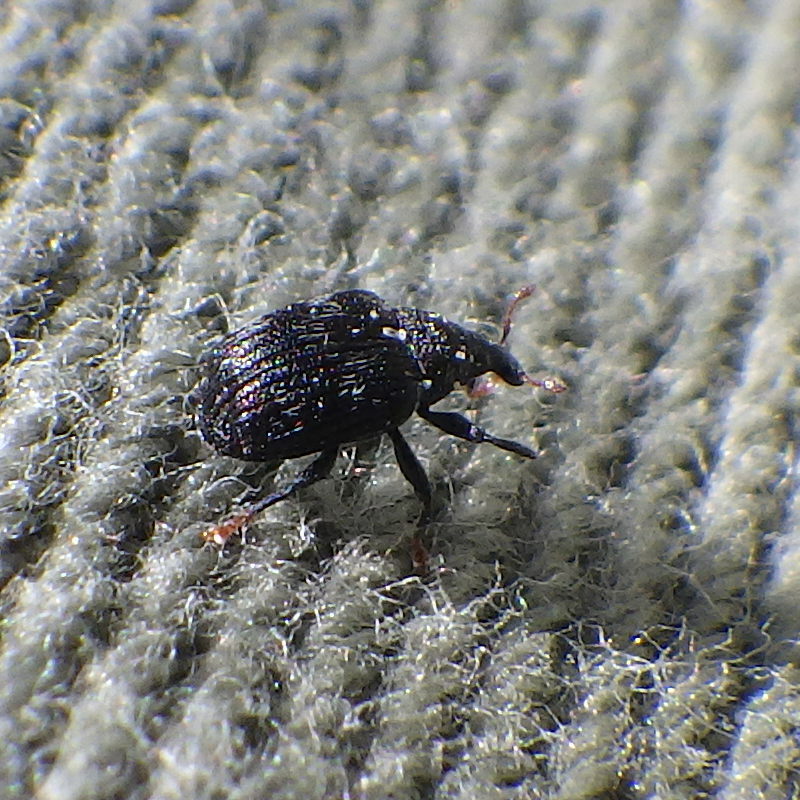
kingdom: Animalia
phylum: Arthropoda
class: Insecta
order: Coleoptera
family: Curculionidae
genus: Piazorhinus
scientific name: Piazorhinus scutellaris
